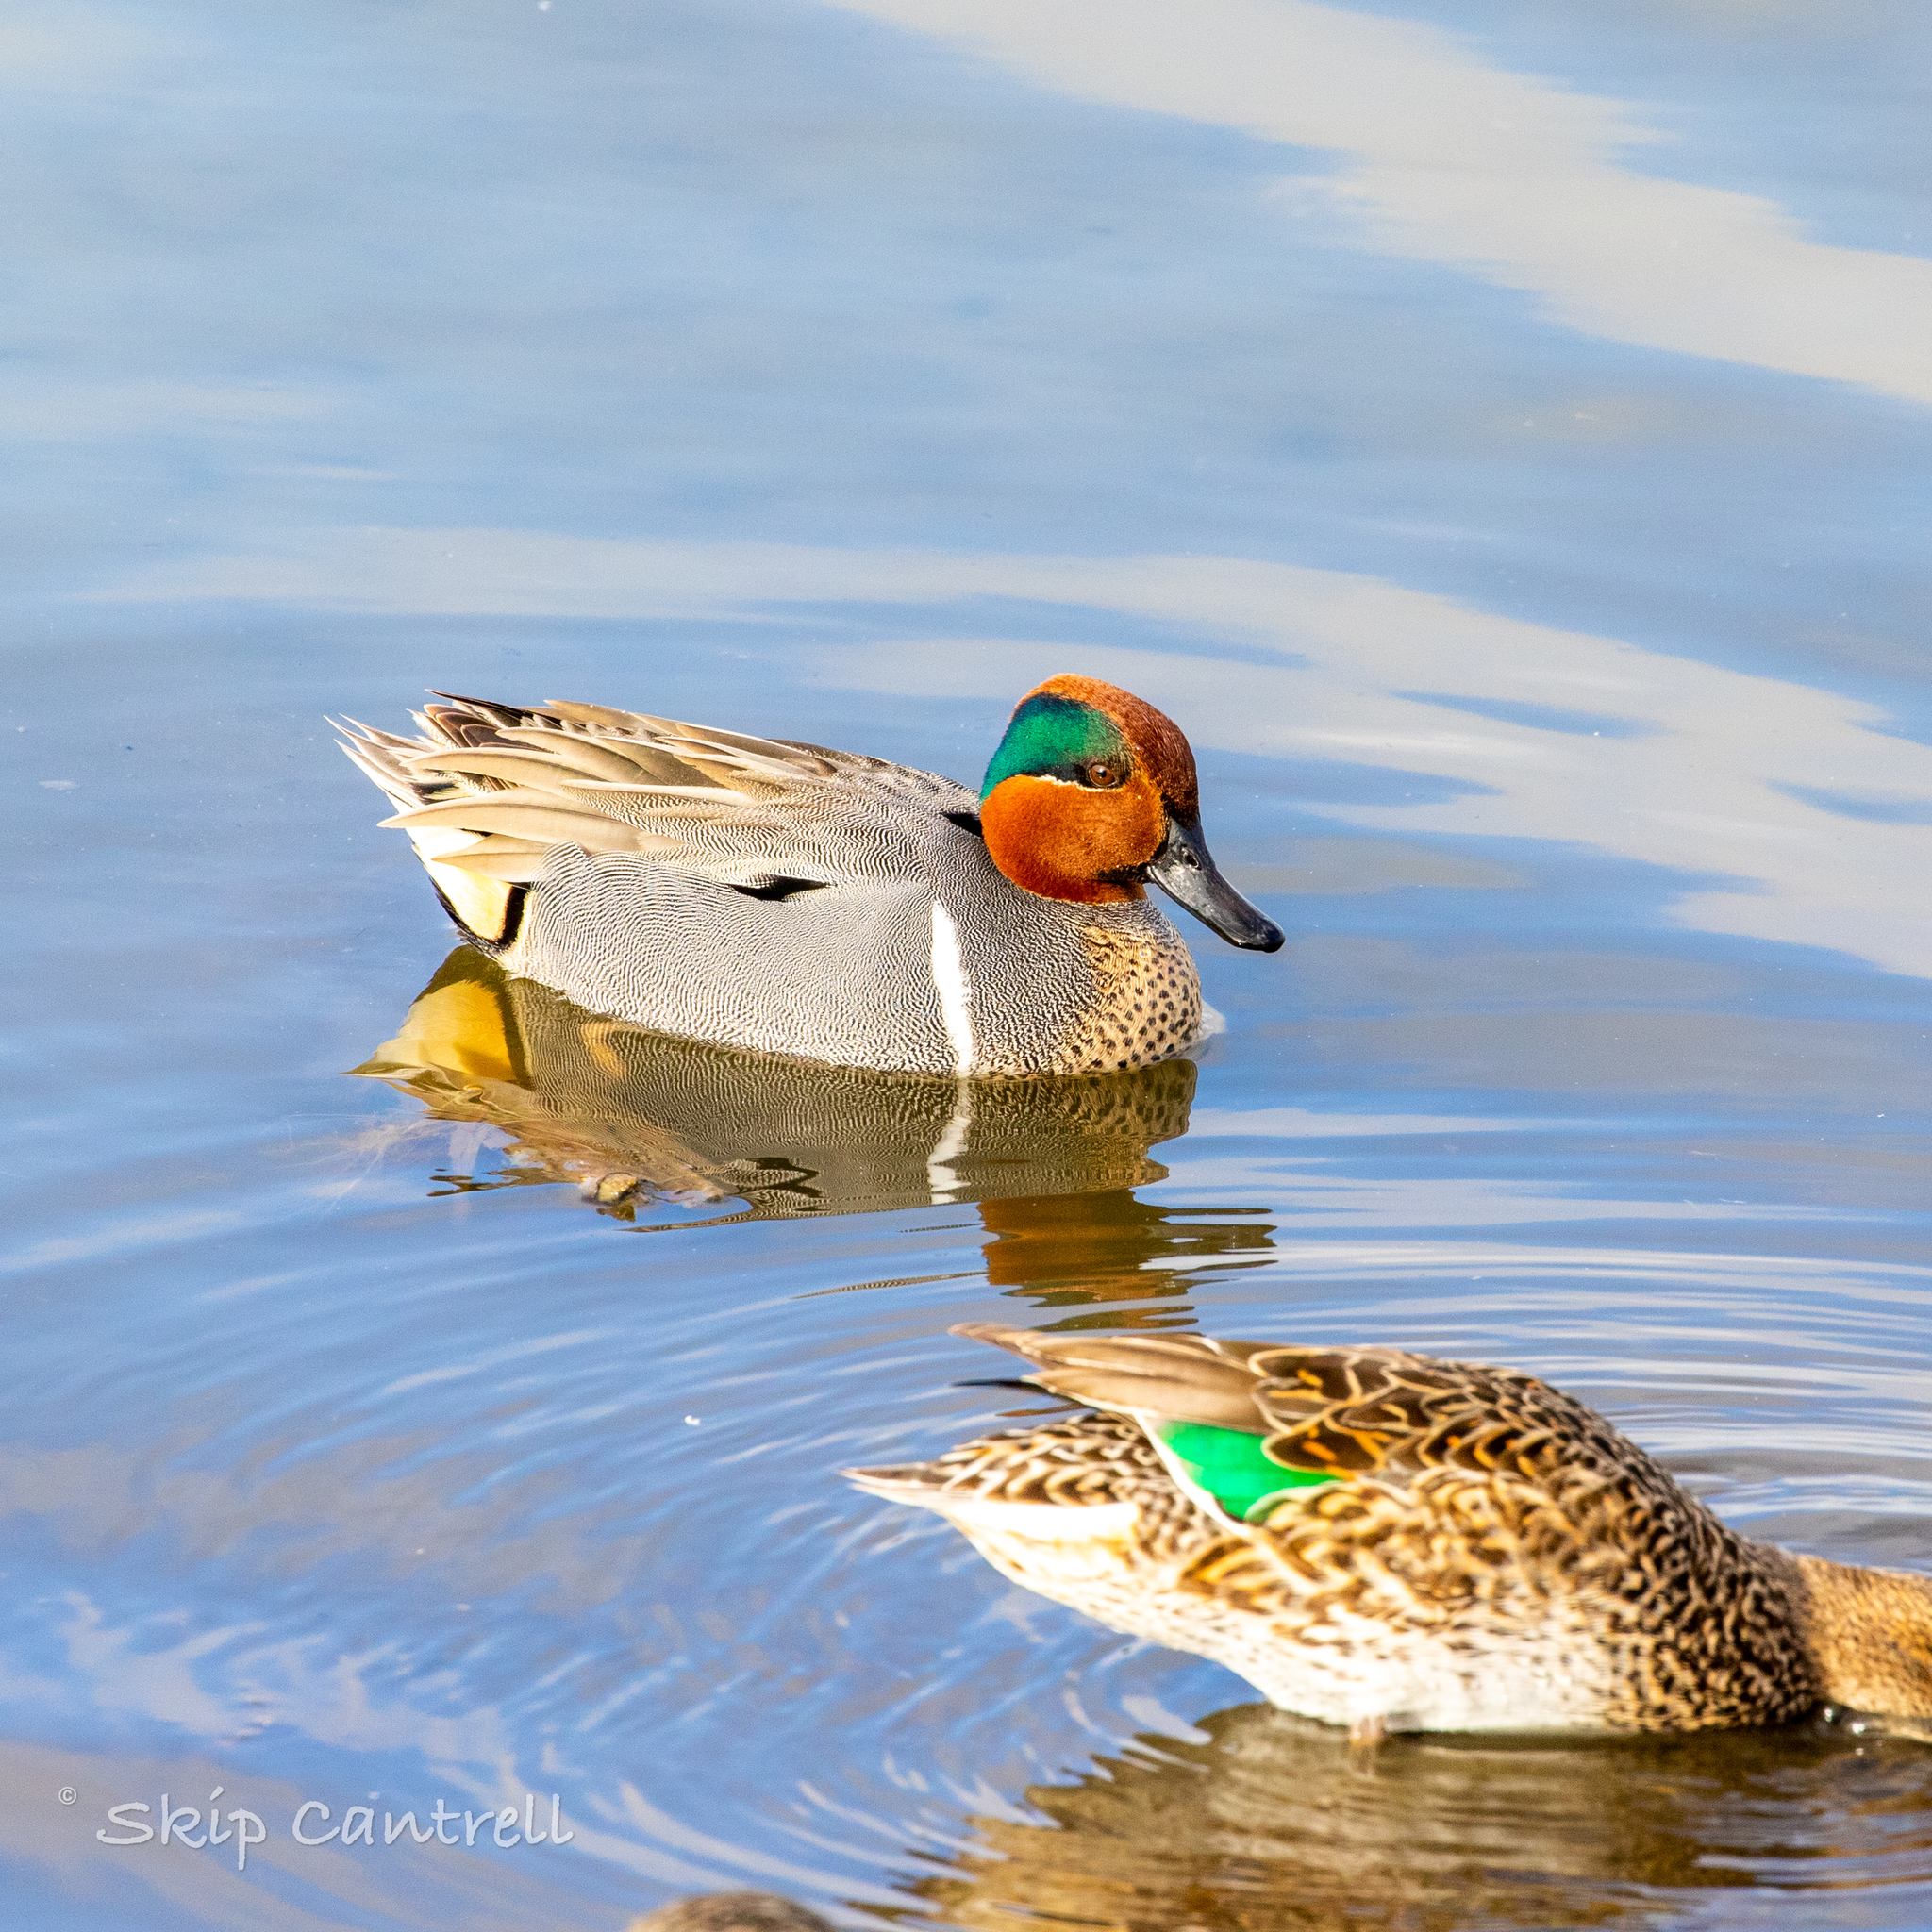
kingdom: Animalia
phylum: Chordata
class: Aves
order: Anseriformes
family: Anatidae
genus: Anas
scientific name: Anas crecca
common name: Eurasian teal
